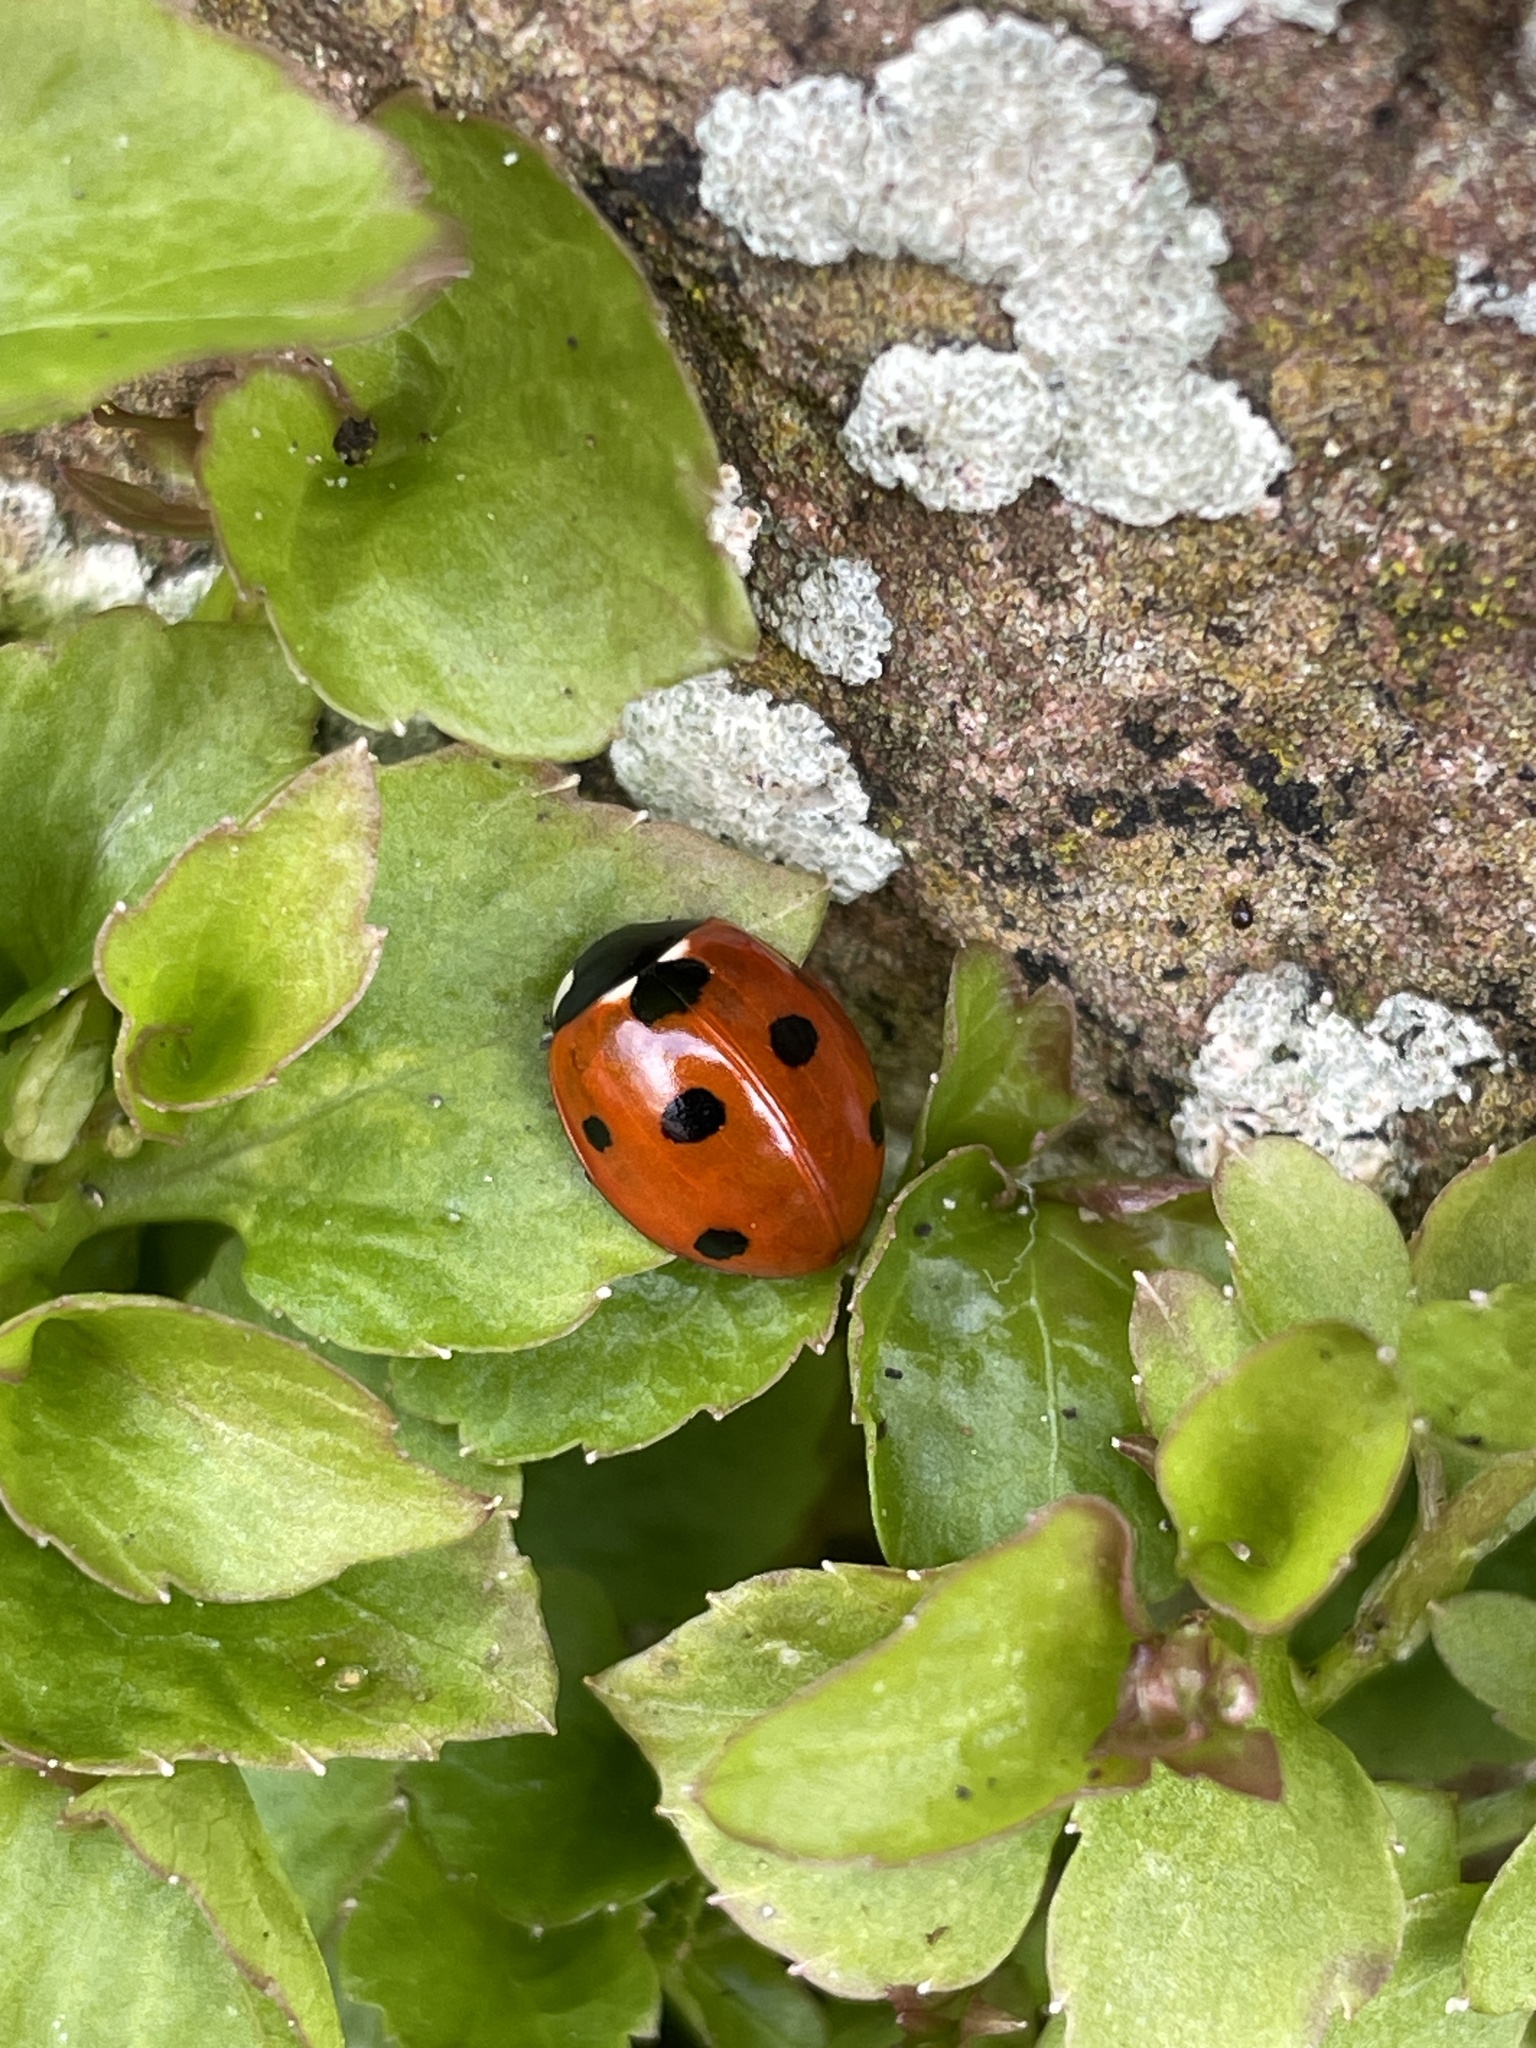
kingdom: Animalia
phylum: Arthropoda
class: Insecta
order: Coleoptera
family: Coccinellidae
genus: Coccinella
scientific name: Coccinella septempunctata
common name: Sevenspotted lady beetle
